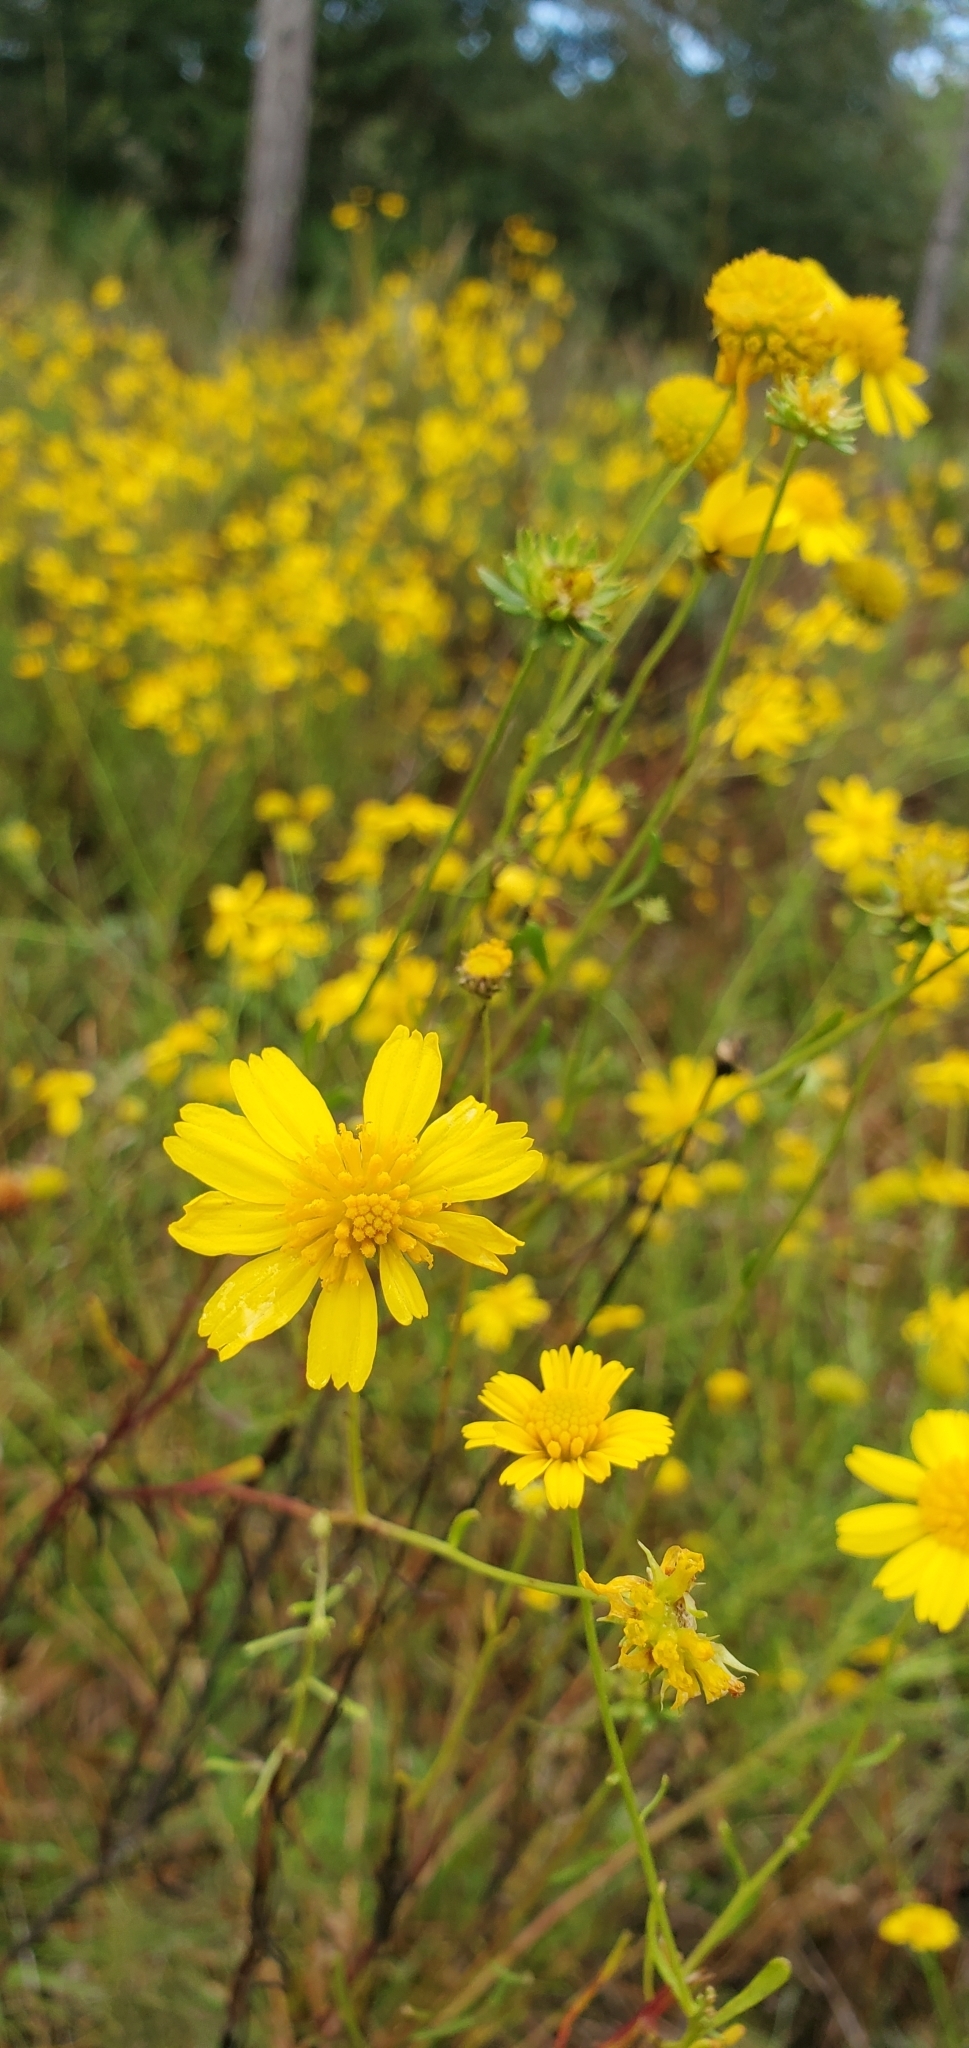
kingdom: Plantae
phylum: Tracheophyta
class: Magnoliopsida
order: Asterales
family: Asteraceae
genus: Balduina
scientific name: Balduina angustifolia
